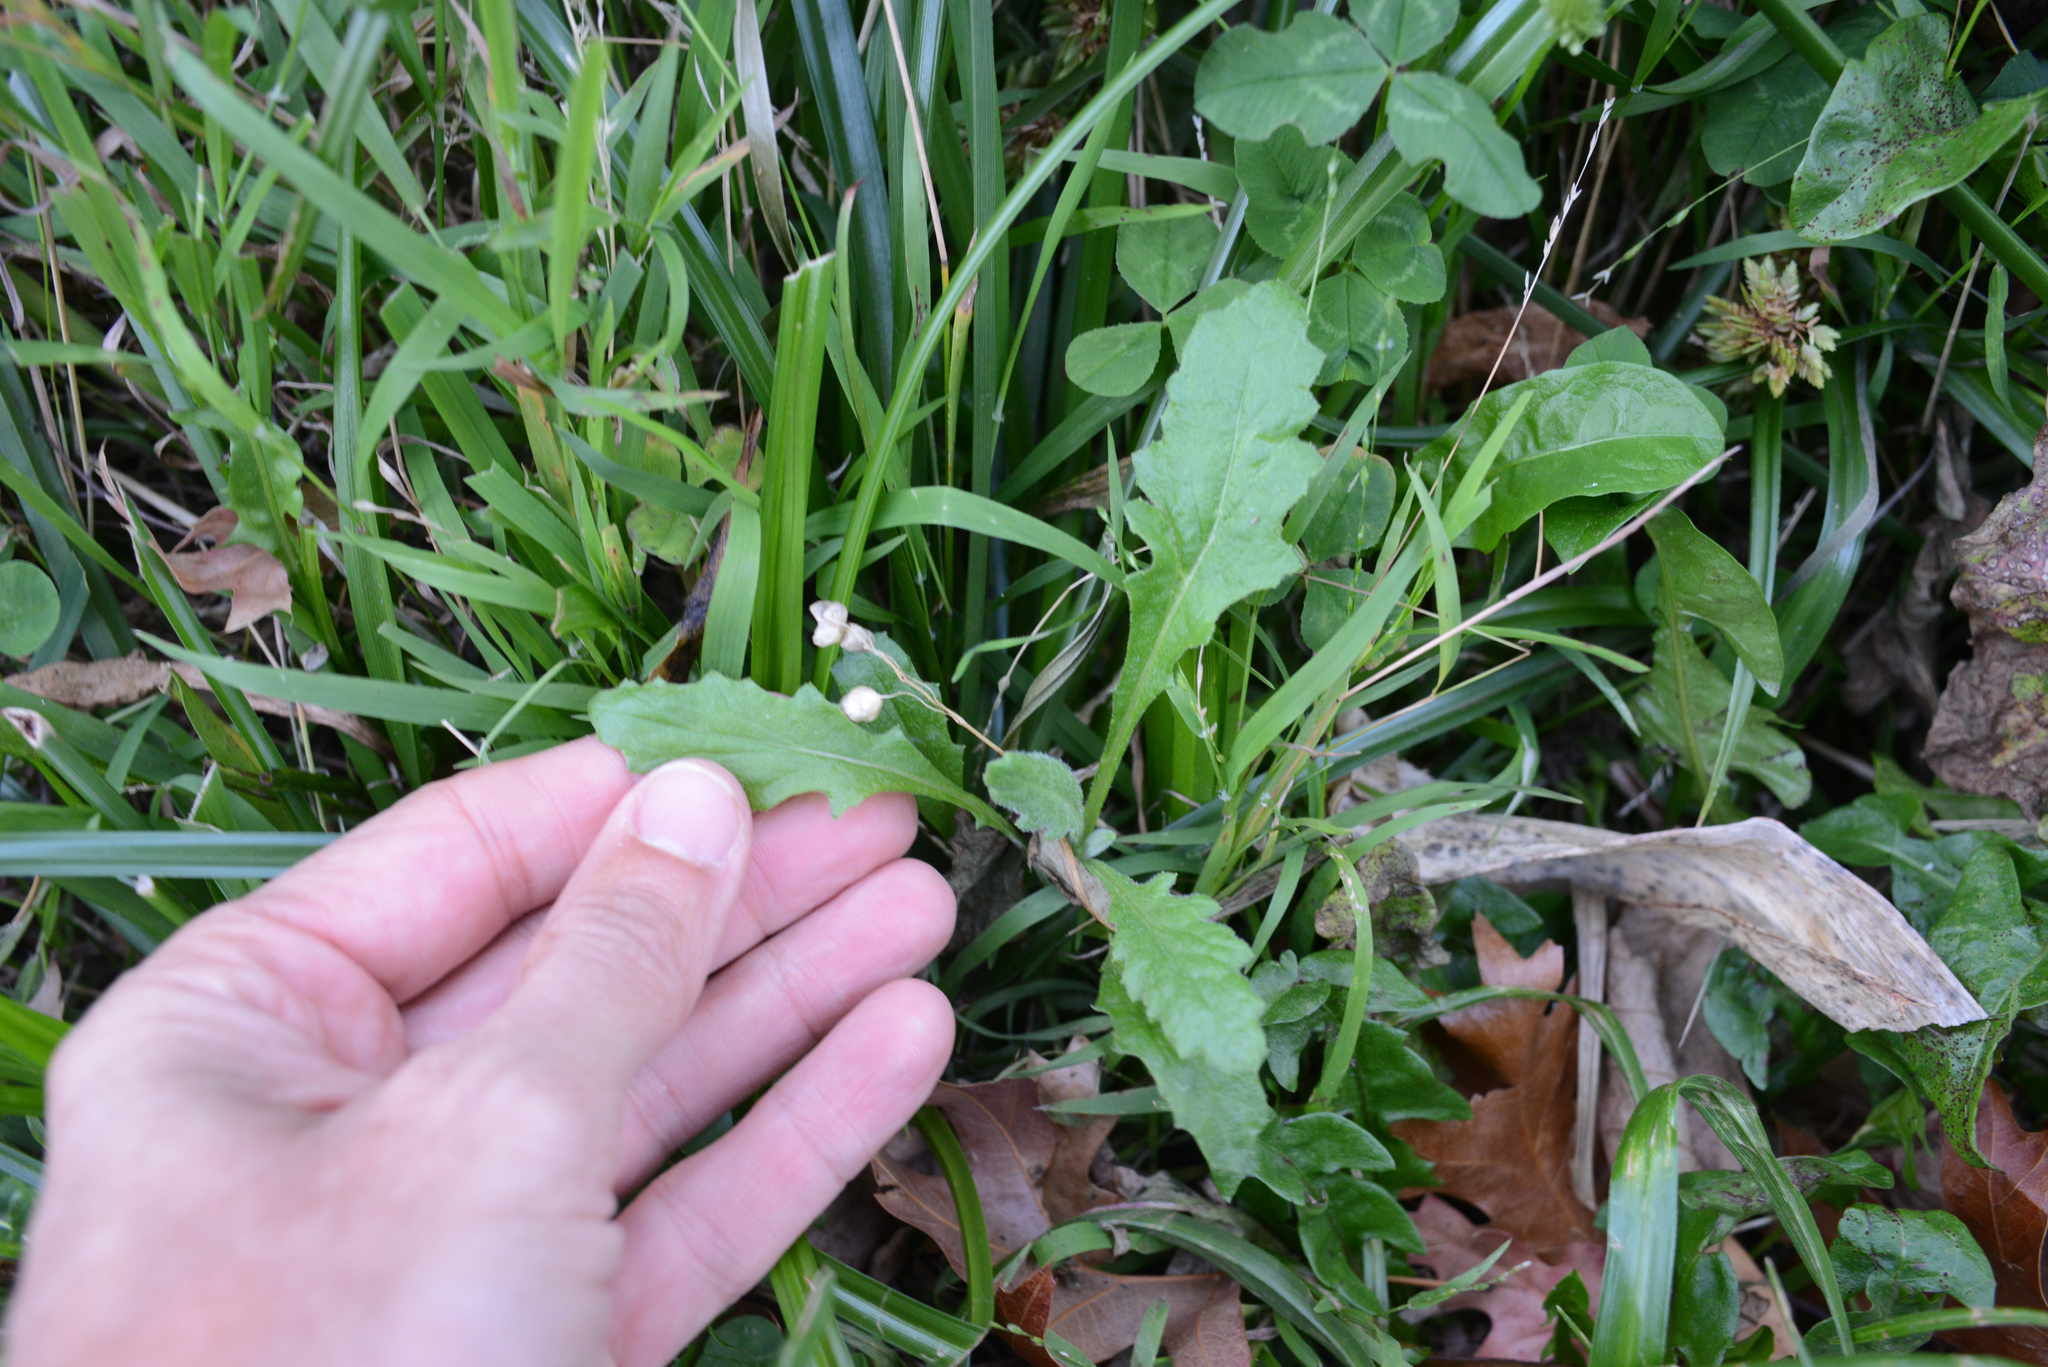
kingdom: Plantae
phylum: Tracheophyta
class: Magnoliopsida
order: Asterales
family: Asteraceae
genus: Senecio
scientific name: Senecio glomeratus
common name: Cutleaf burnweed
